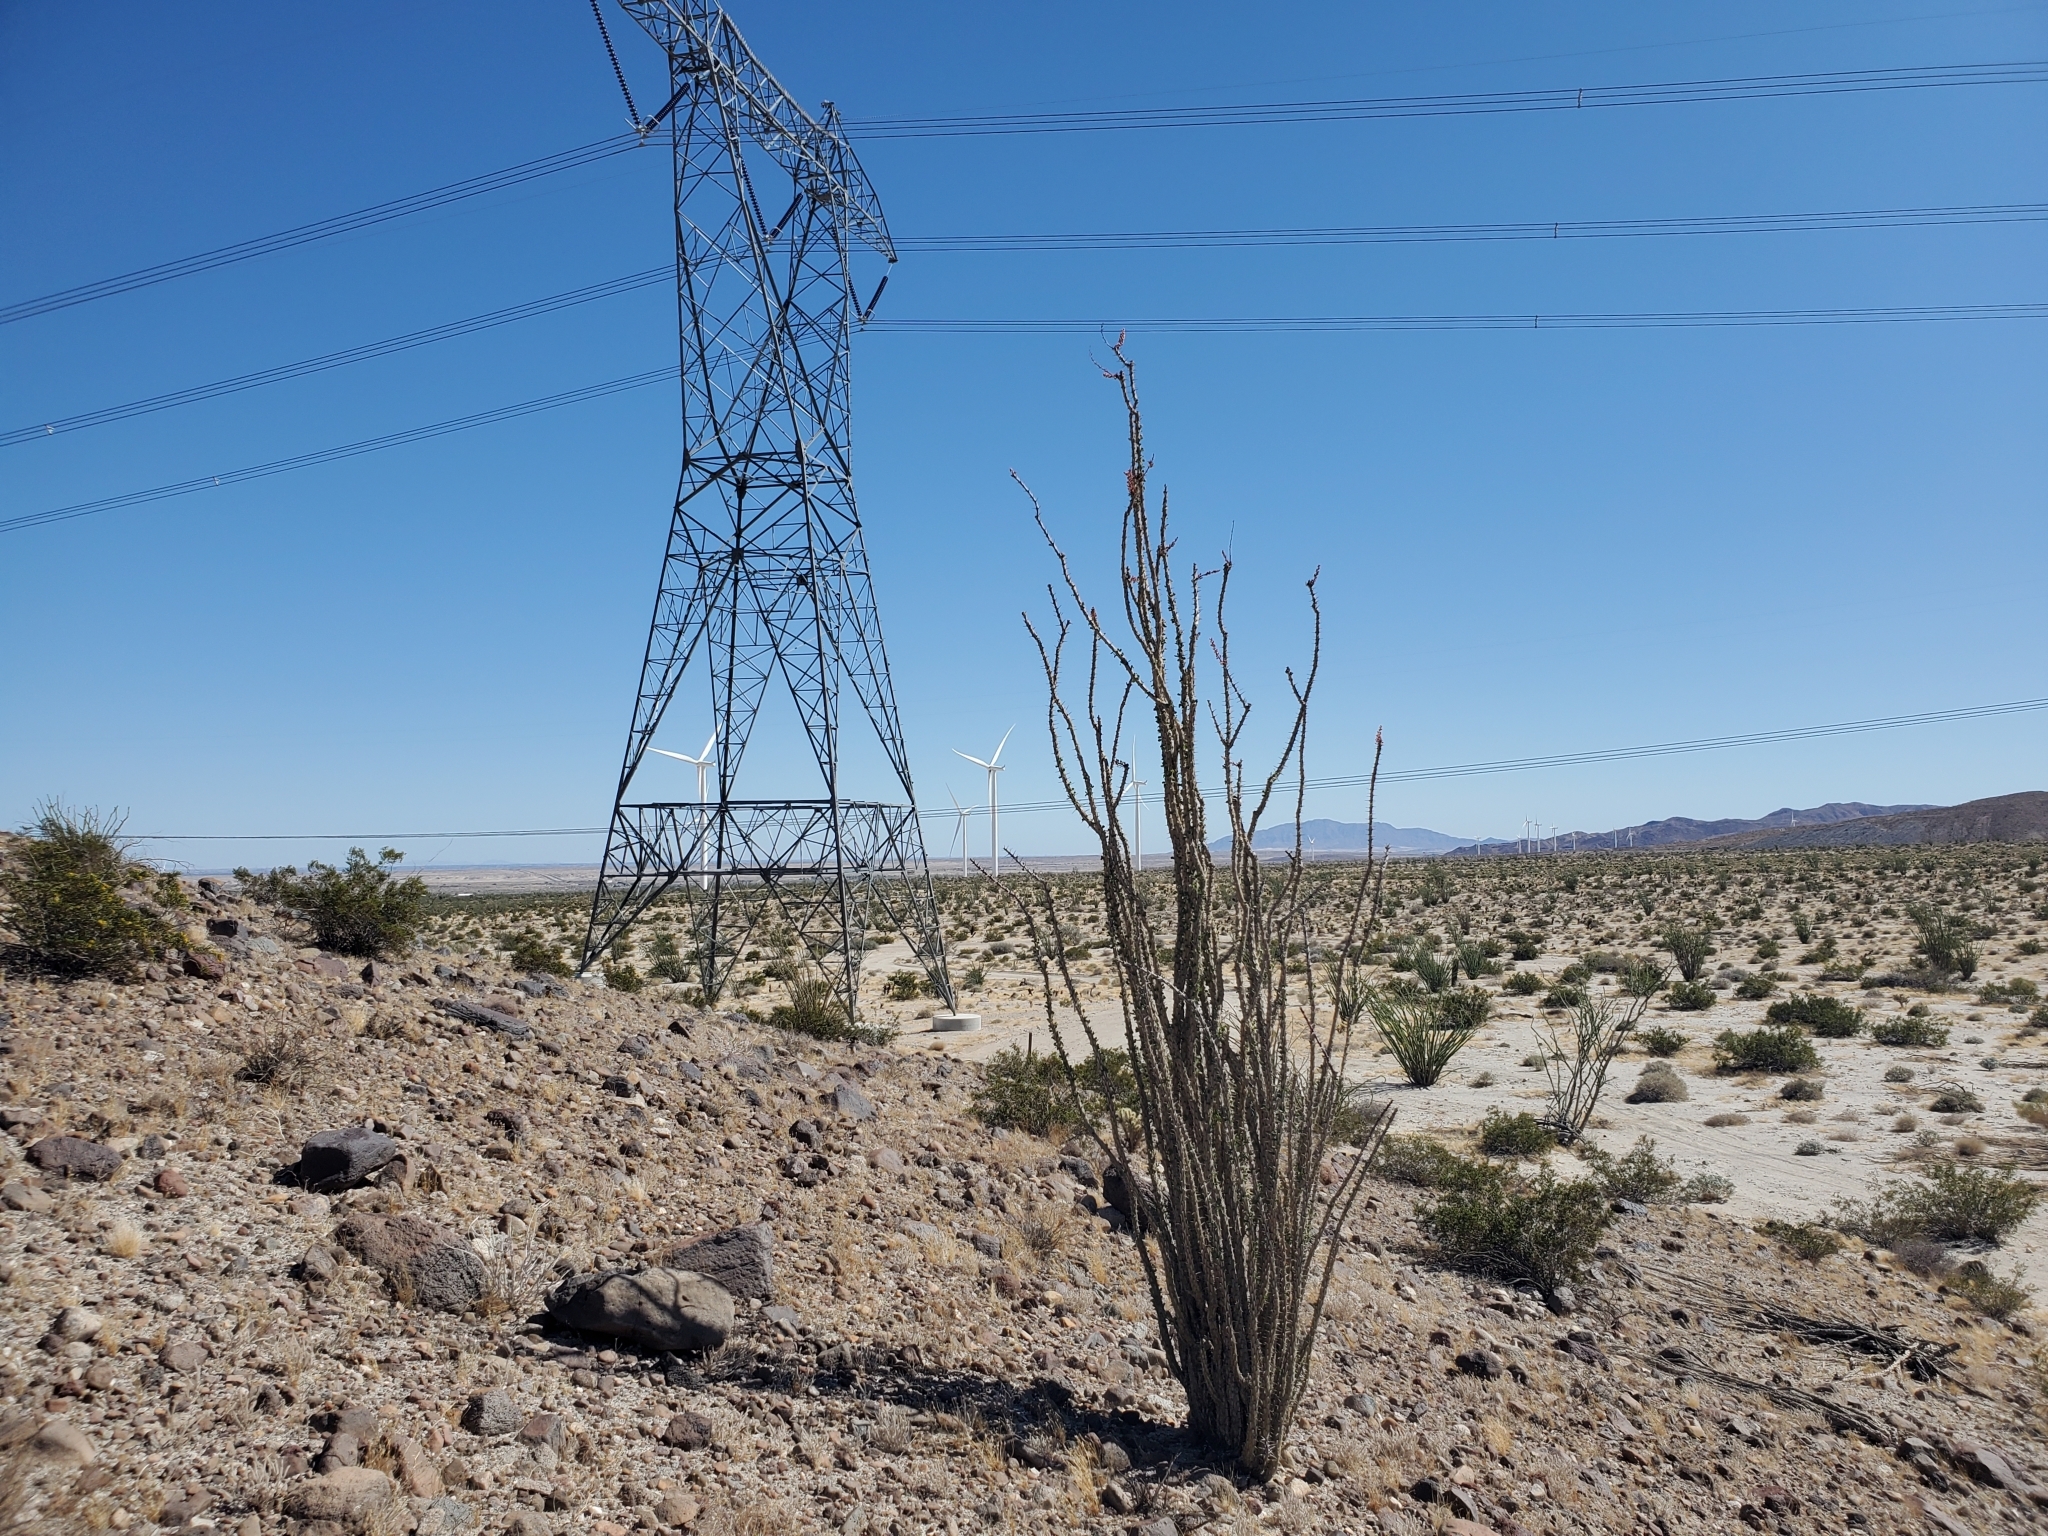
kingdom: Plantae
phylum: Tracheophyta
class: Magnoliopsida
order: Ericales
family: Fouquieriaceae
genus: Fouquieria
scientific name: Fouquieria splendens
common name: Vine-cactus
